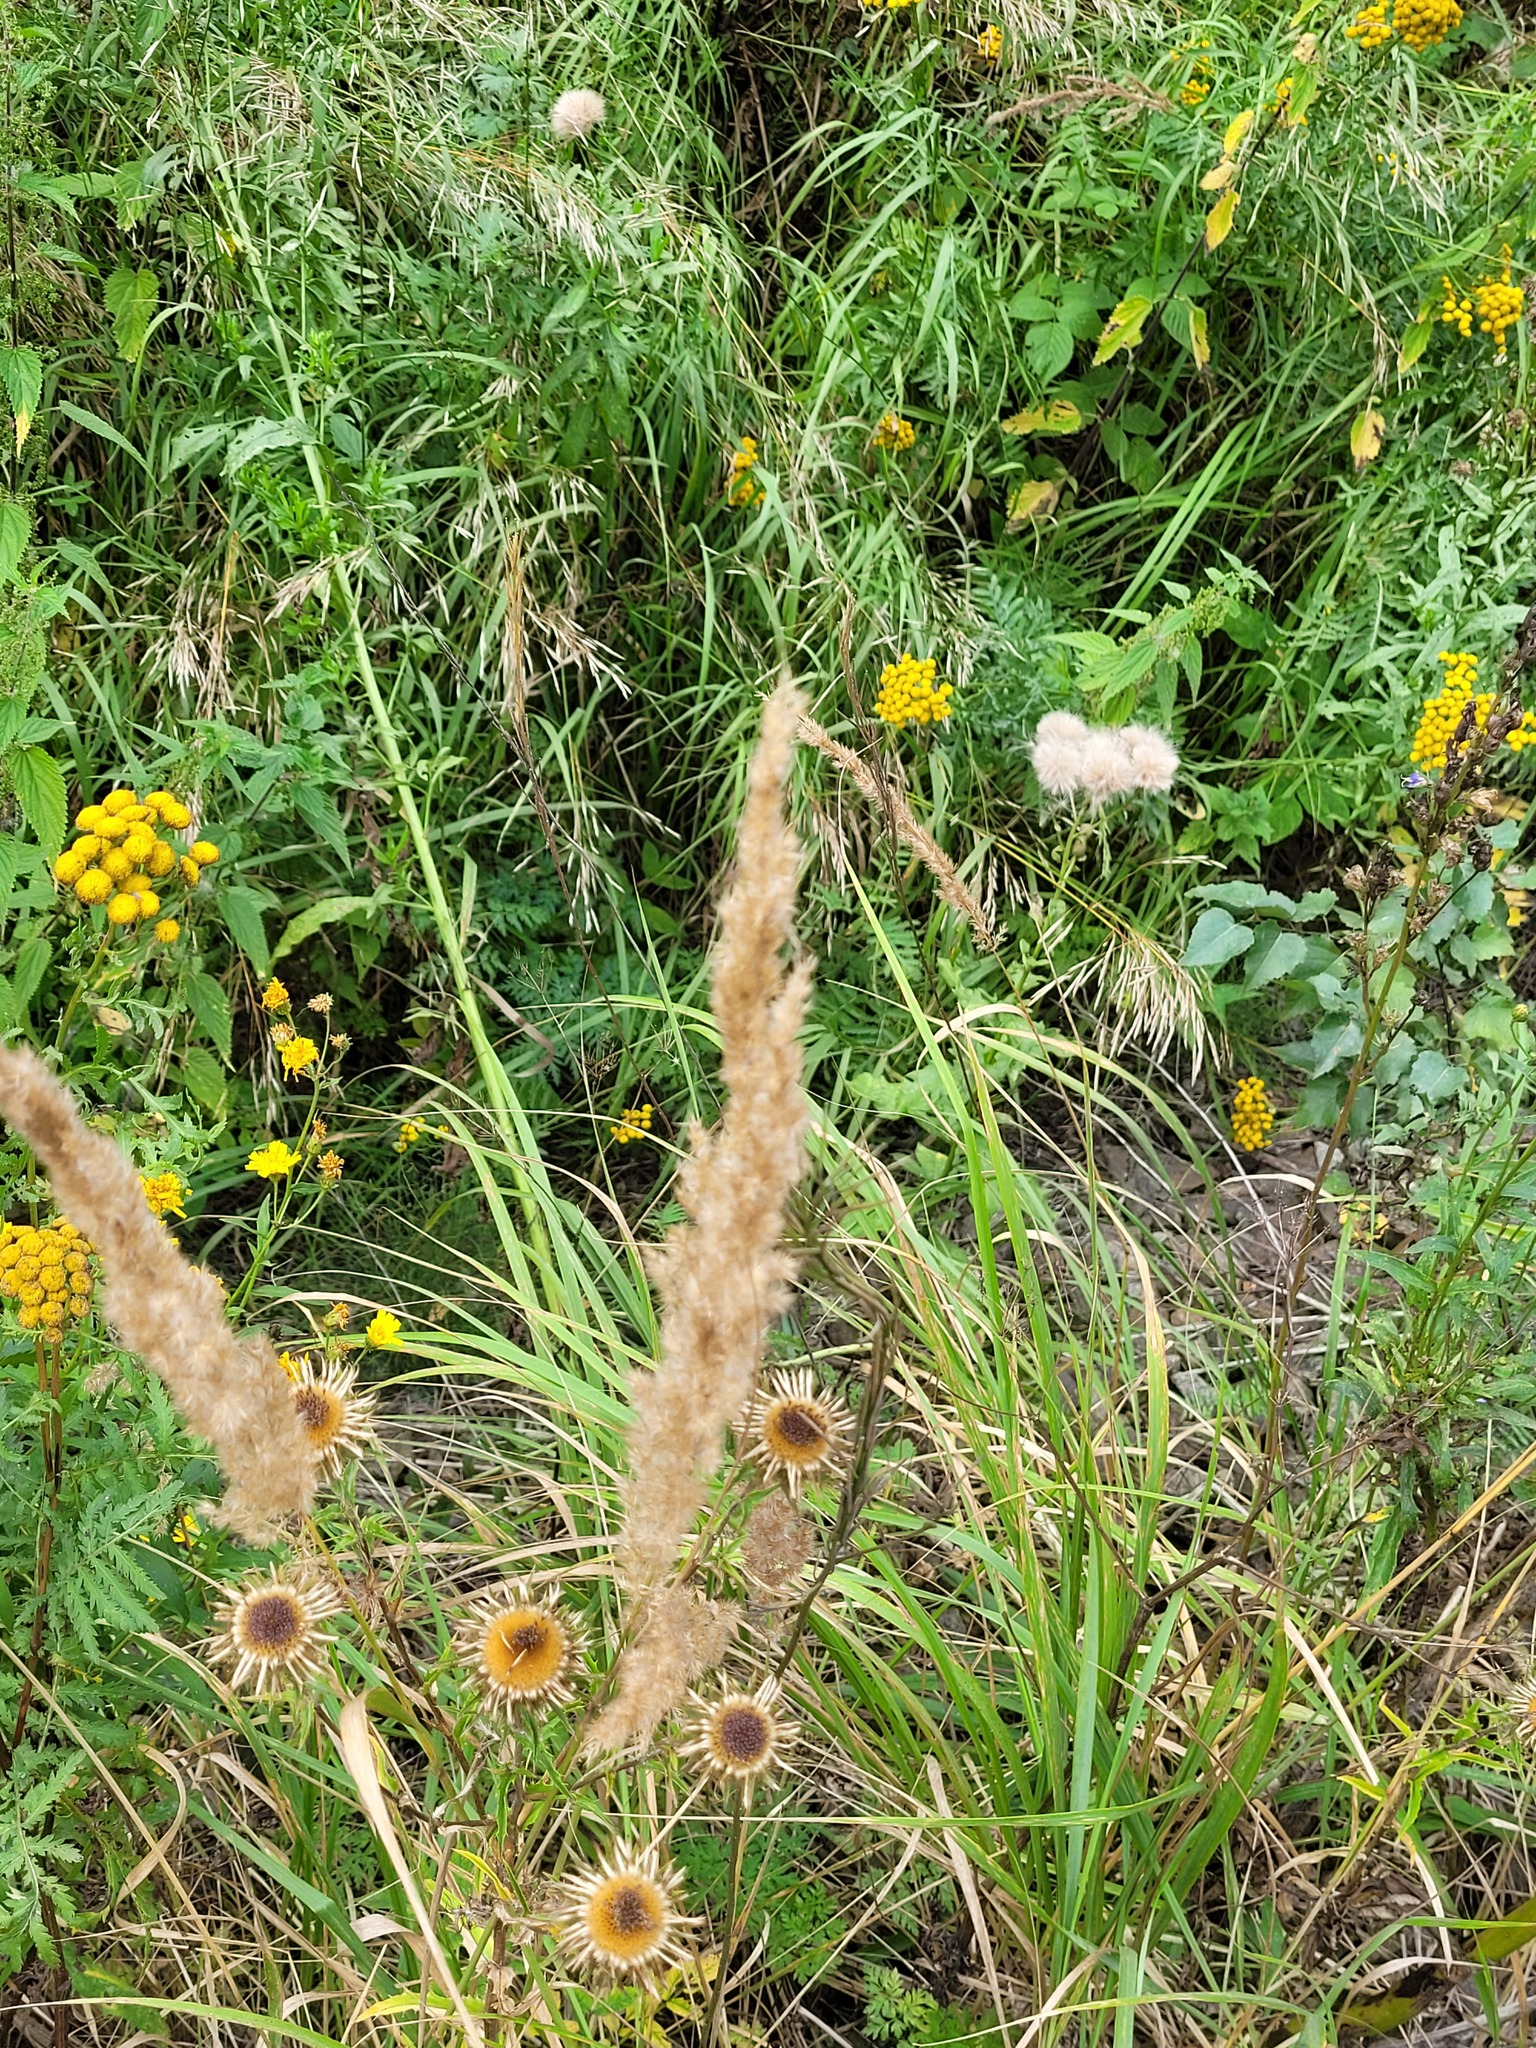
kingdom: Plantae
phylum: Tracheophyta
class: Liliopsida
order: Poales
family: Poaceae
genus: Calamagrostis
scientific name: Calamagrostis epigejos
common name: Wood small-reed
